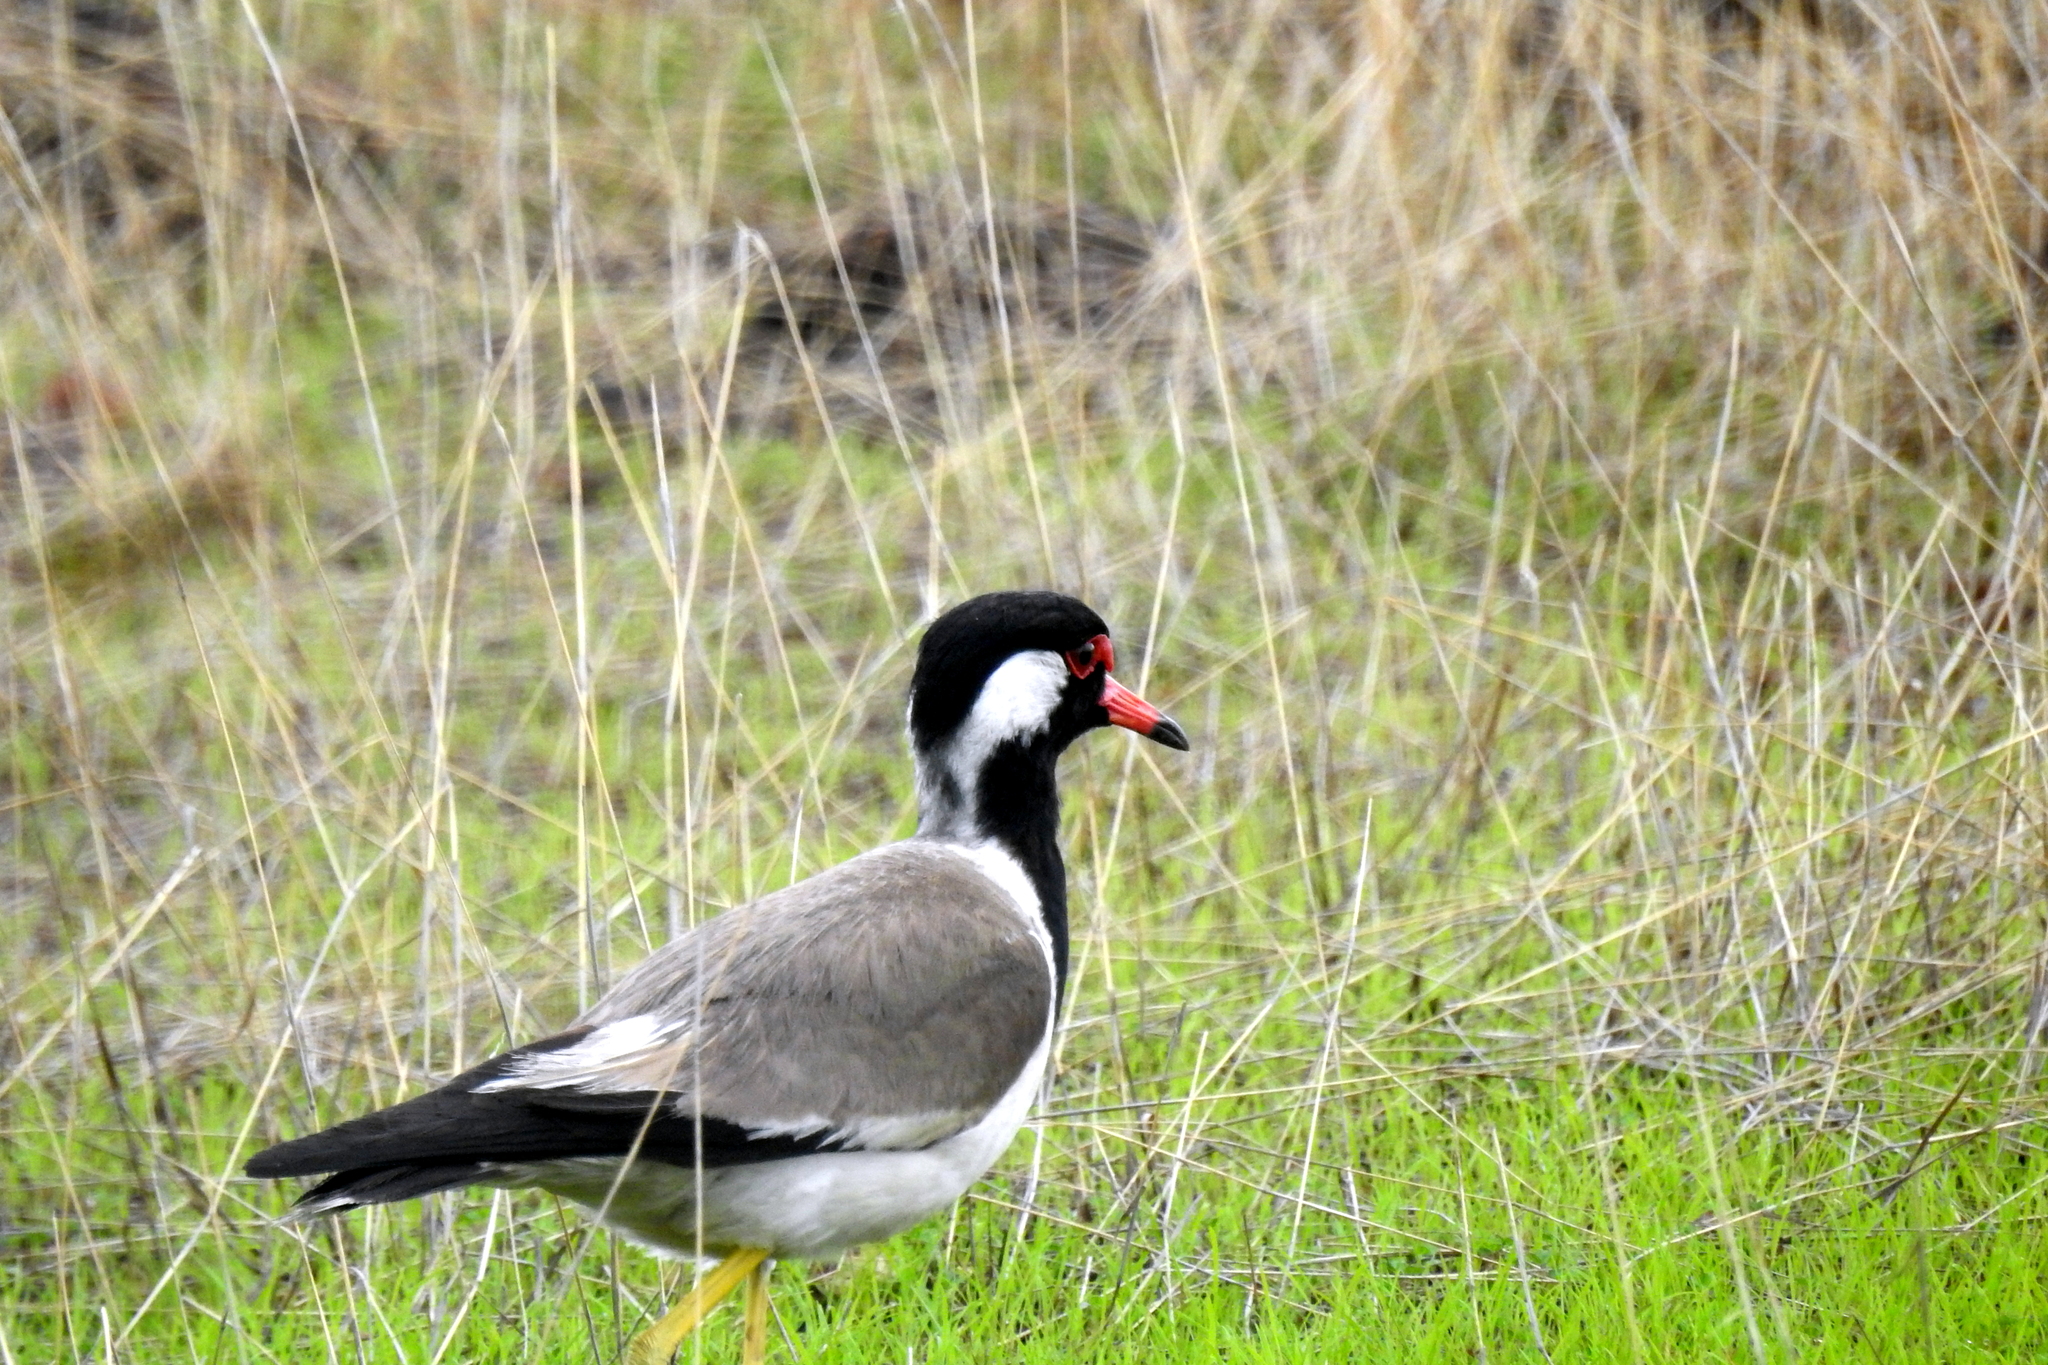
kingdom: Animalia
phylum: Chordata
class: Aves
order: Charadriiformes
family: Charadriidae
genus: Vanellus
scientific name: Vanellus indicus
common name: Red-wattled lapwing
